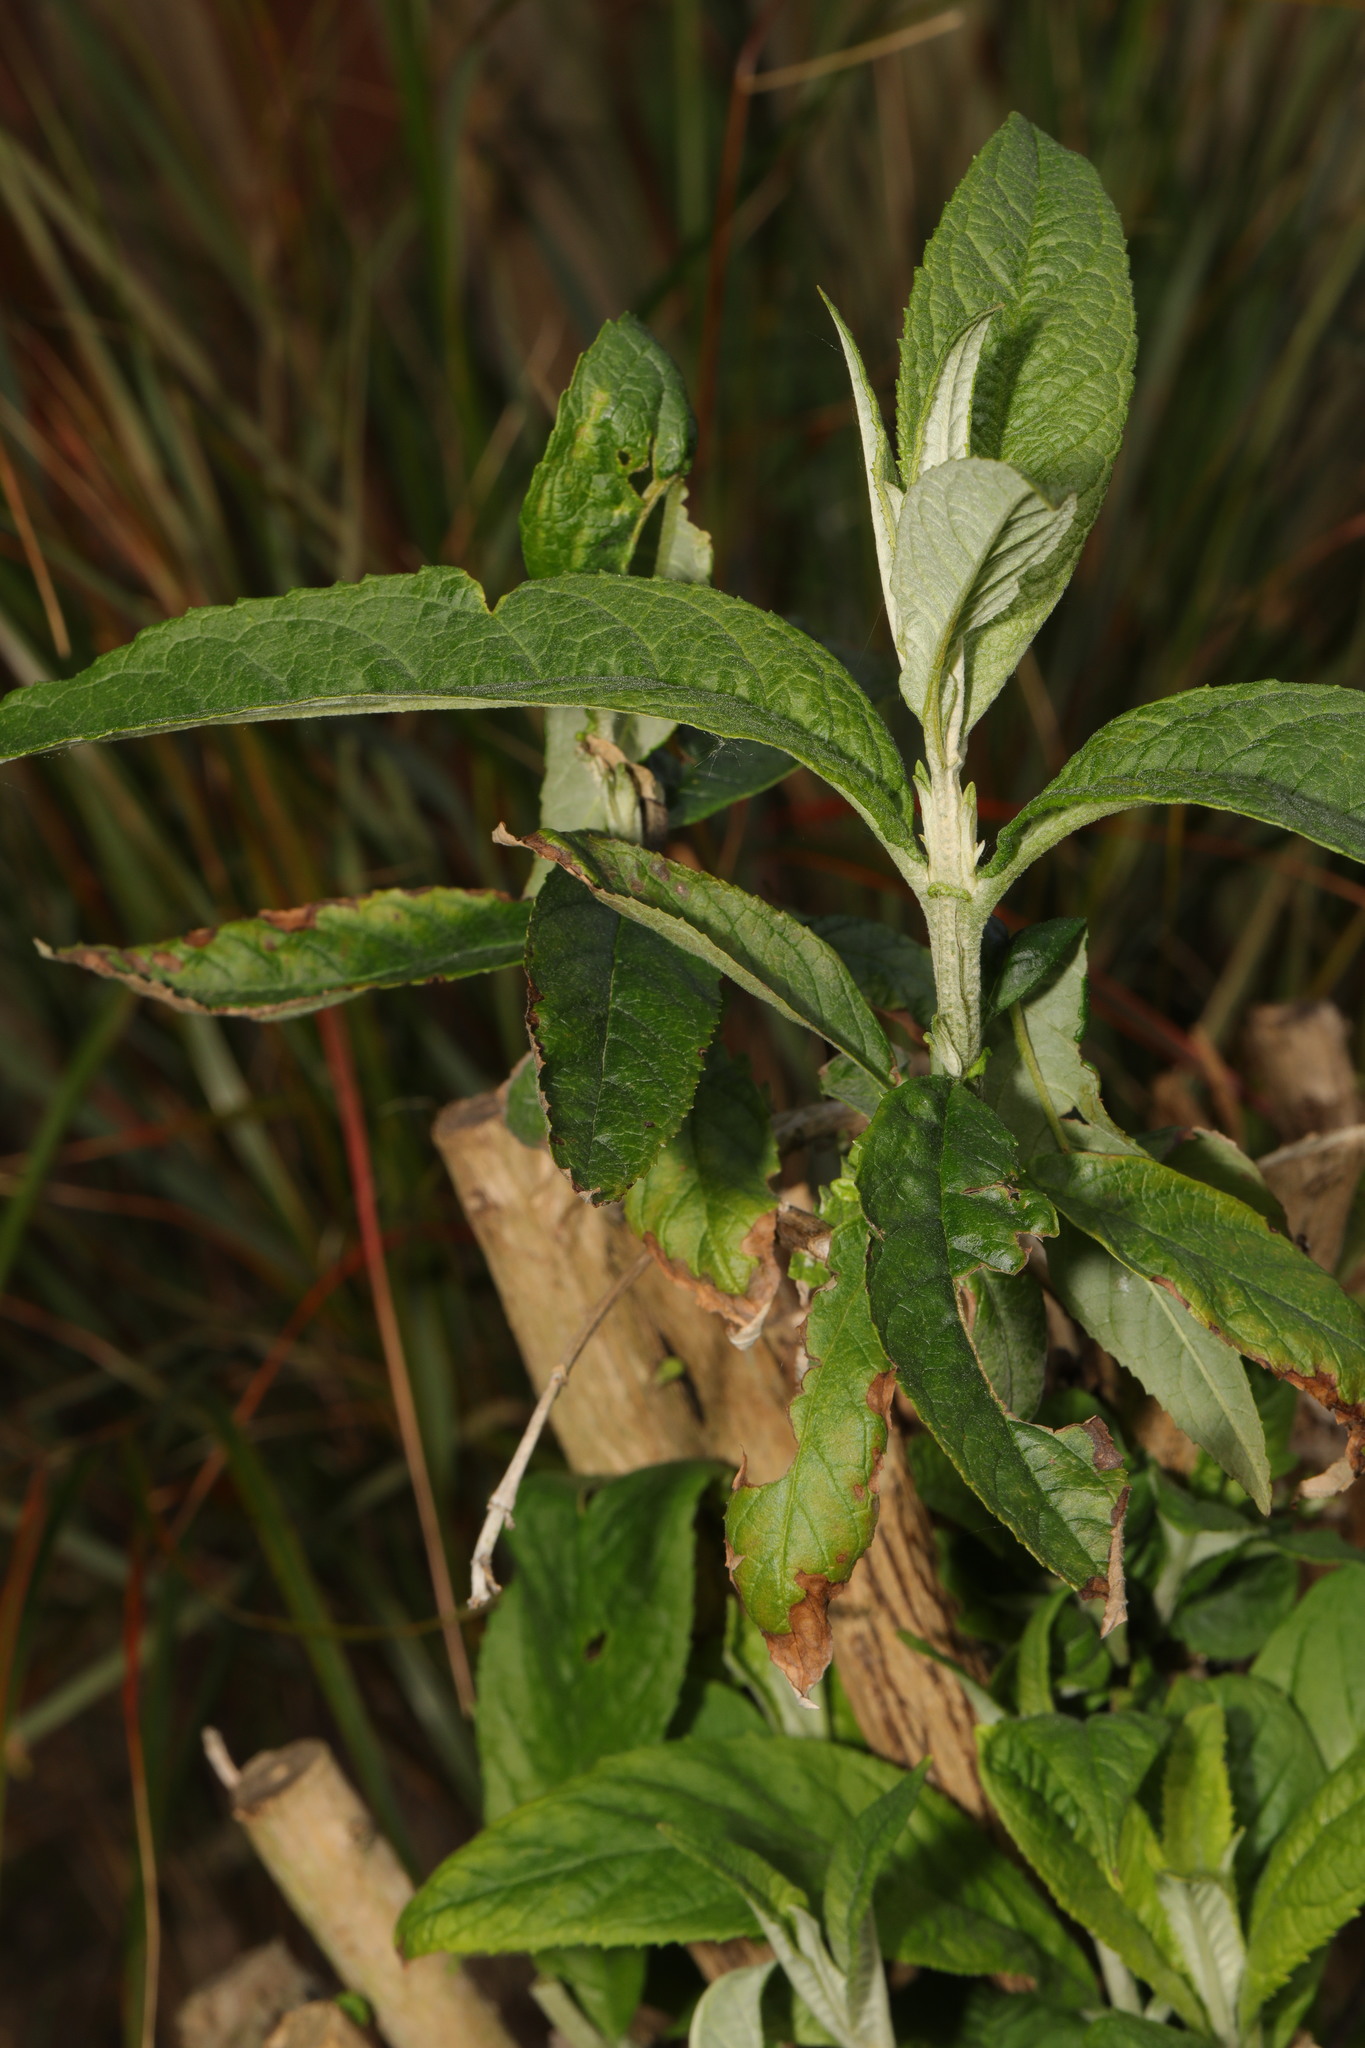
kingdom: Plantae
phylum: Tracheophyta
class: Magnoliopsida
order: Lamiales
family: Scrophulariaceae
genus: Buddleja
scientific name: Buddleja davidii
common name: Butterfly-bush
